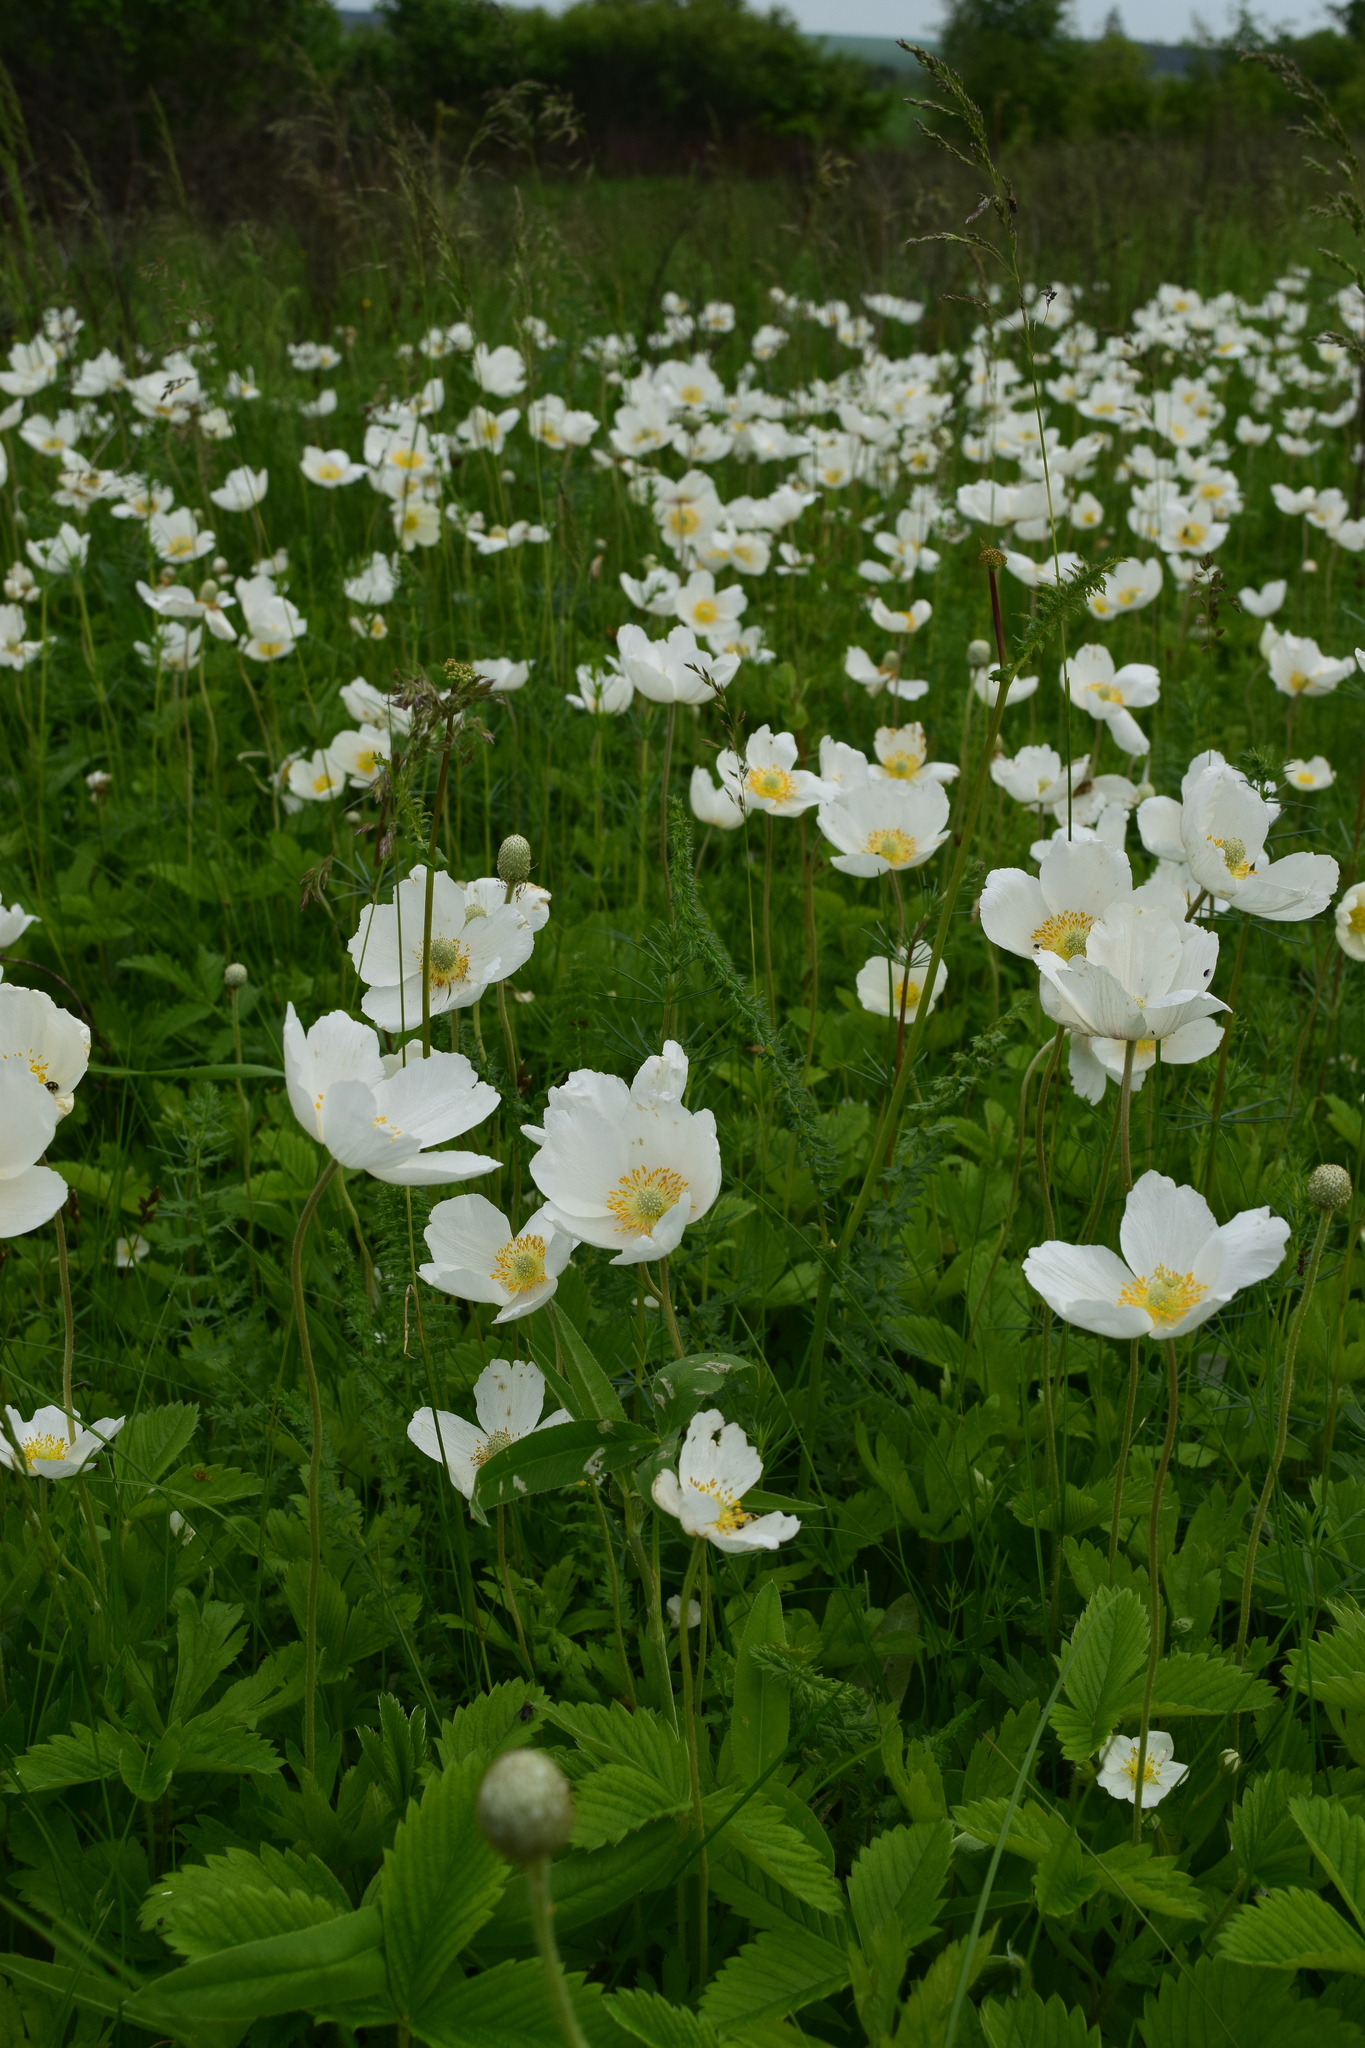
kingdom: Plantae
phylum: Tracheophyta
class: Magnoliopsida
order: Ranunculales
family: Ranunculaceae
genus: Anemone
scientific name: Anemone sylvestris
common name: Snowdrop anemone
